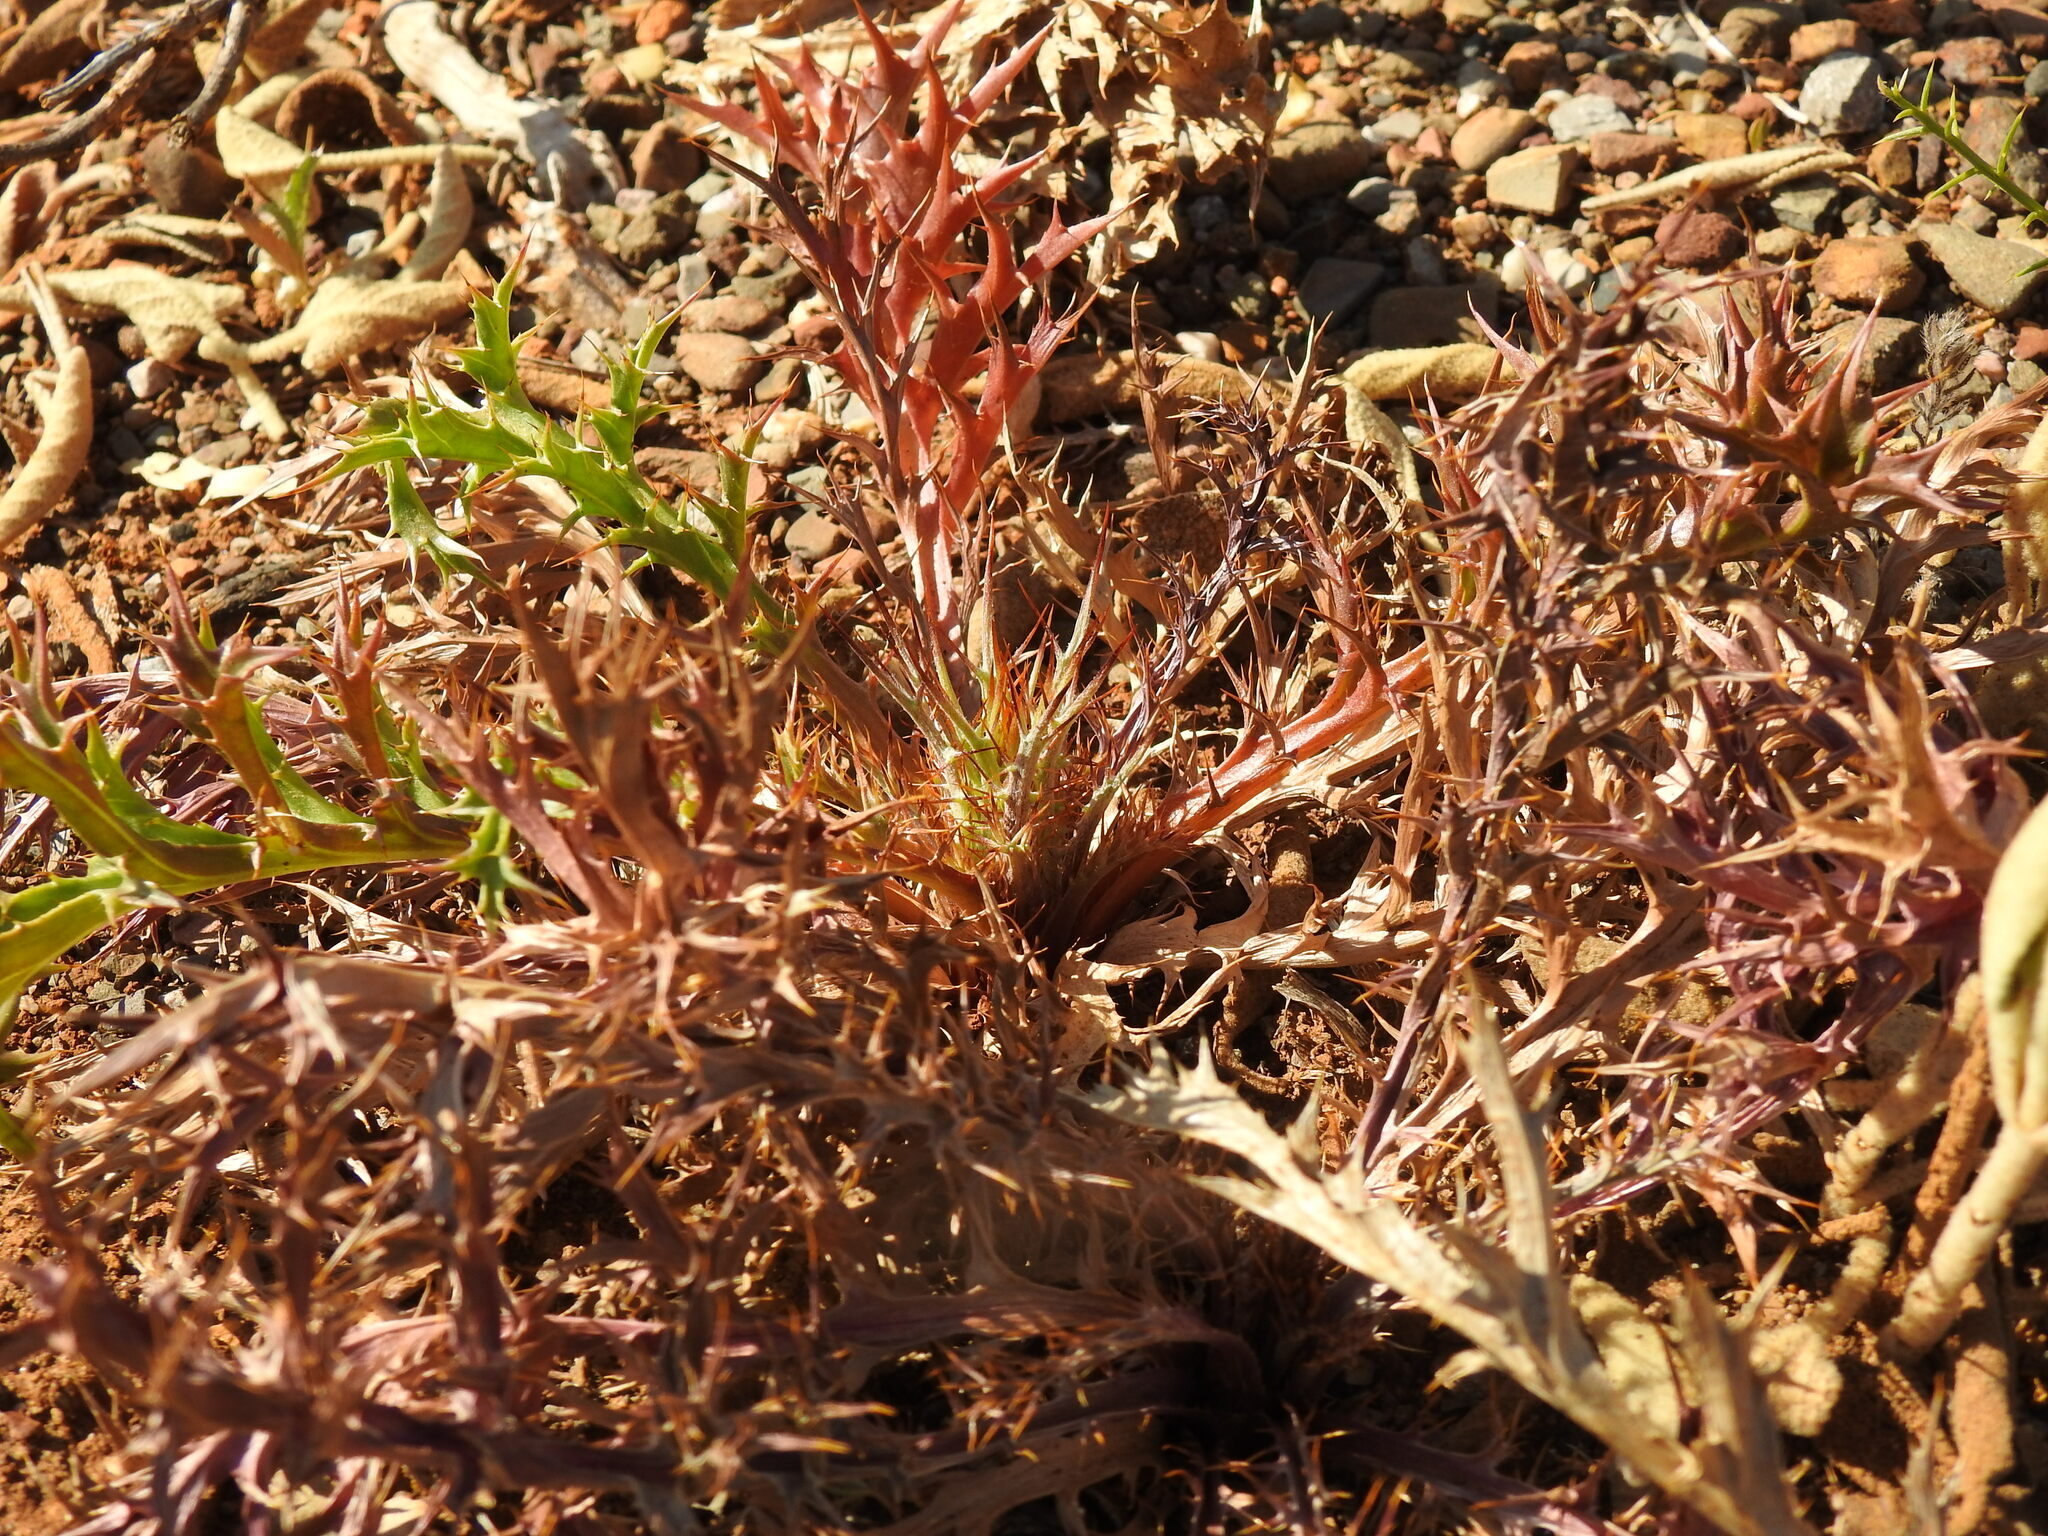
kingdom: Plantae
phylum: Tracheophyta
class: Magnoliopsida
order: Asterales
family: Asteraceae
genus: Chamaeleon
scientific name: Chamaeleon gummifer
